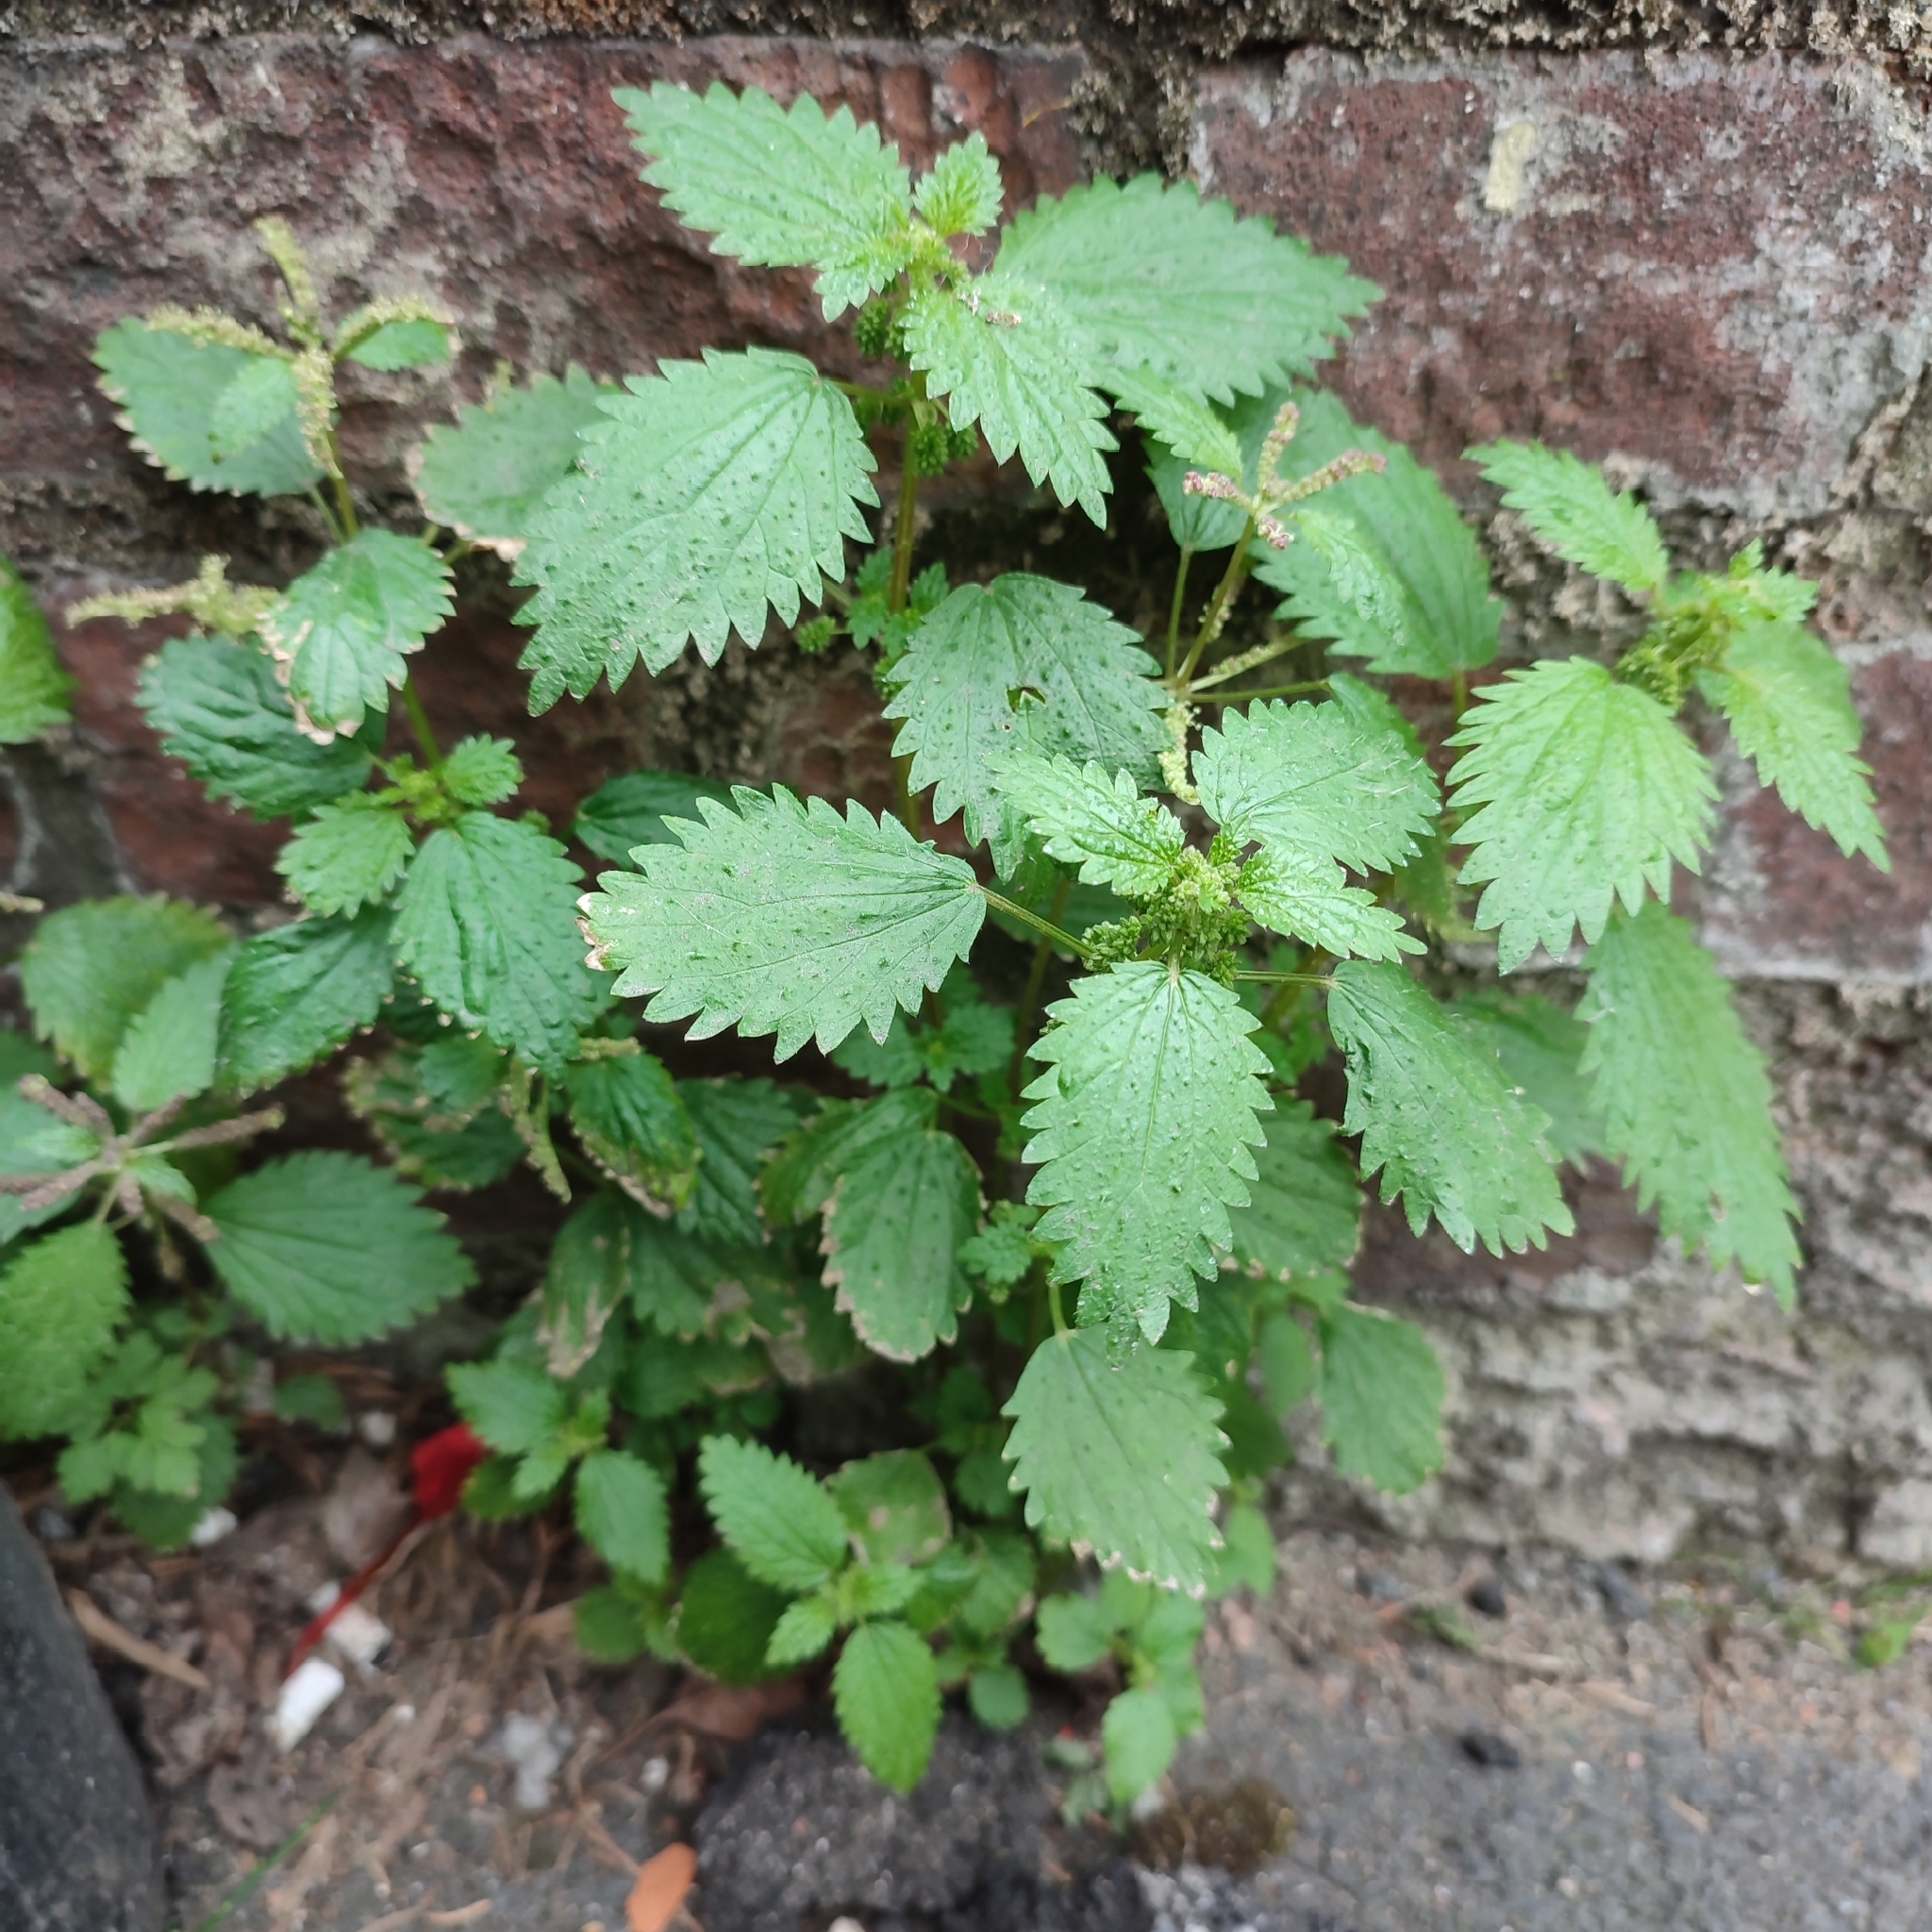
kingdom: Plantae
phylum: Tracheophyta
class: Magnoliopsida
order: Rosales
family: Urticaceae
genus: Urtica
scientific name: Urtica membranacea
